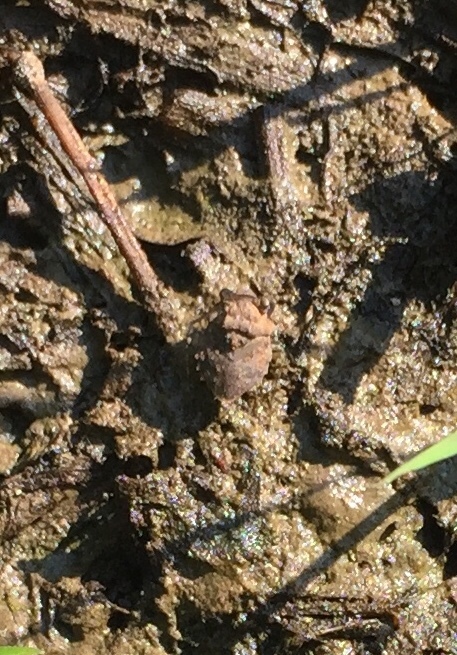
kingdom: Animalia
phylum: Arthropoda
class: Insecta
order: Hemiptera
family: Gelastocoridae
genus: Gelastocoris
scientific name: Gelastocoris oculatus
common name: Toad bug
